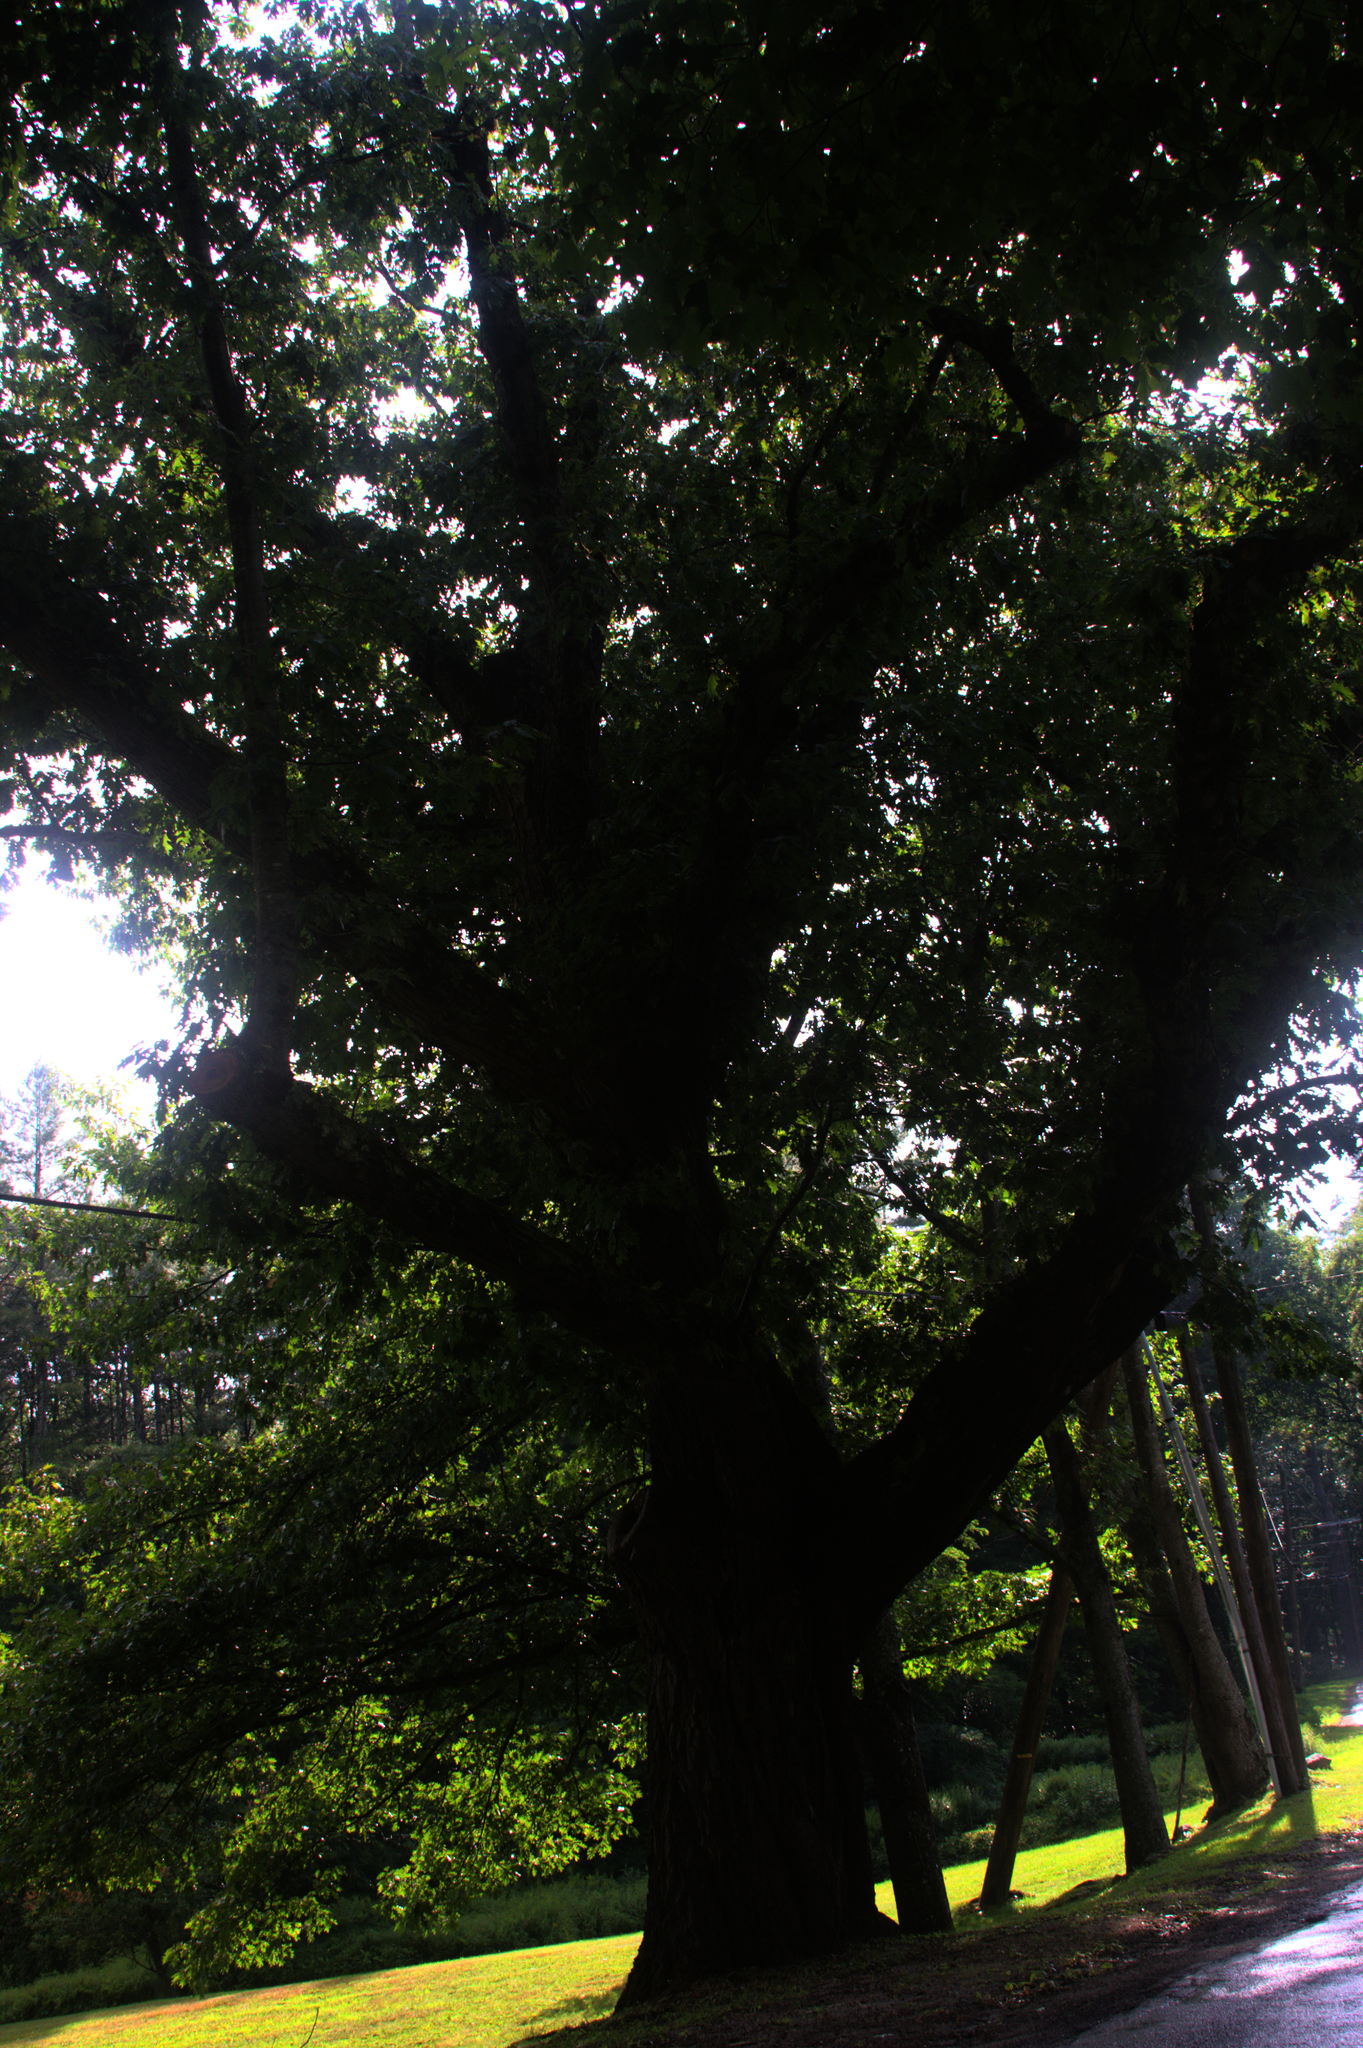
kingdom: Plantae
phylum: Tracheophyta
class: Magnoliopsida
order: Fagales
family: Fagaceae
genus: Quercus
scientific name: Quercus rubra
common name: Red oak
